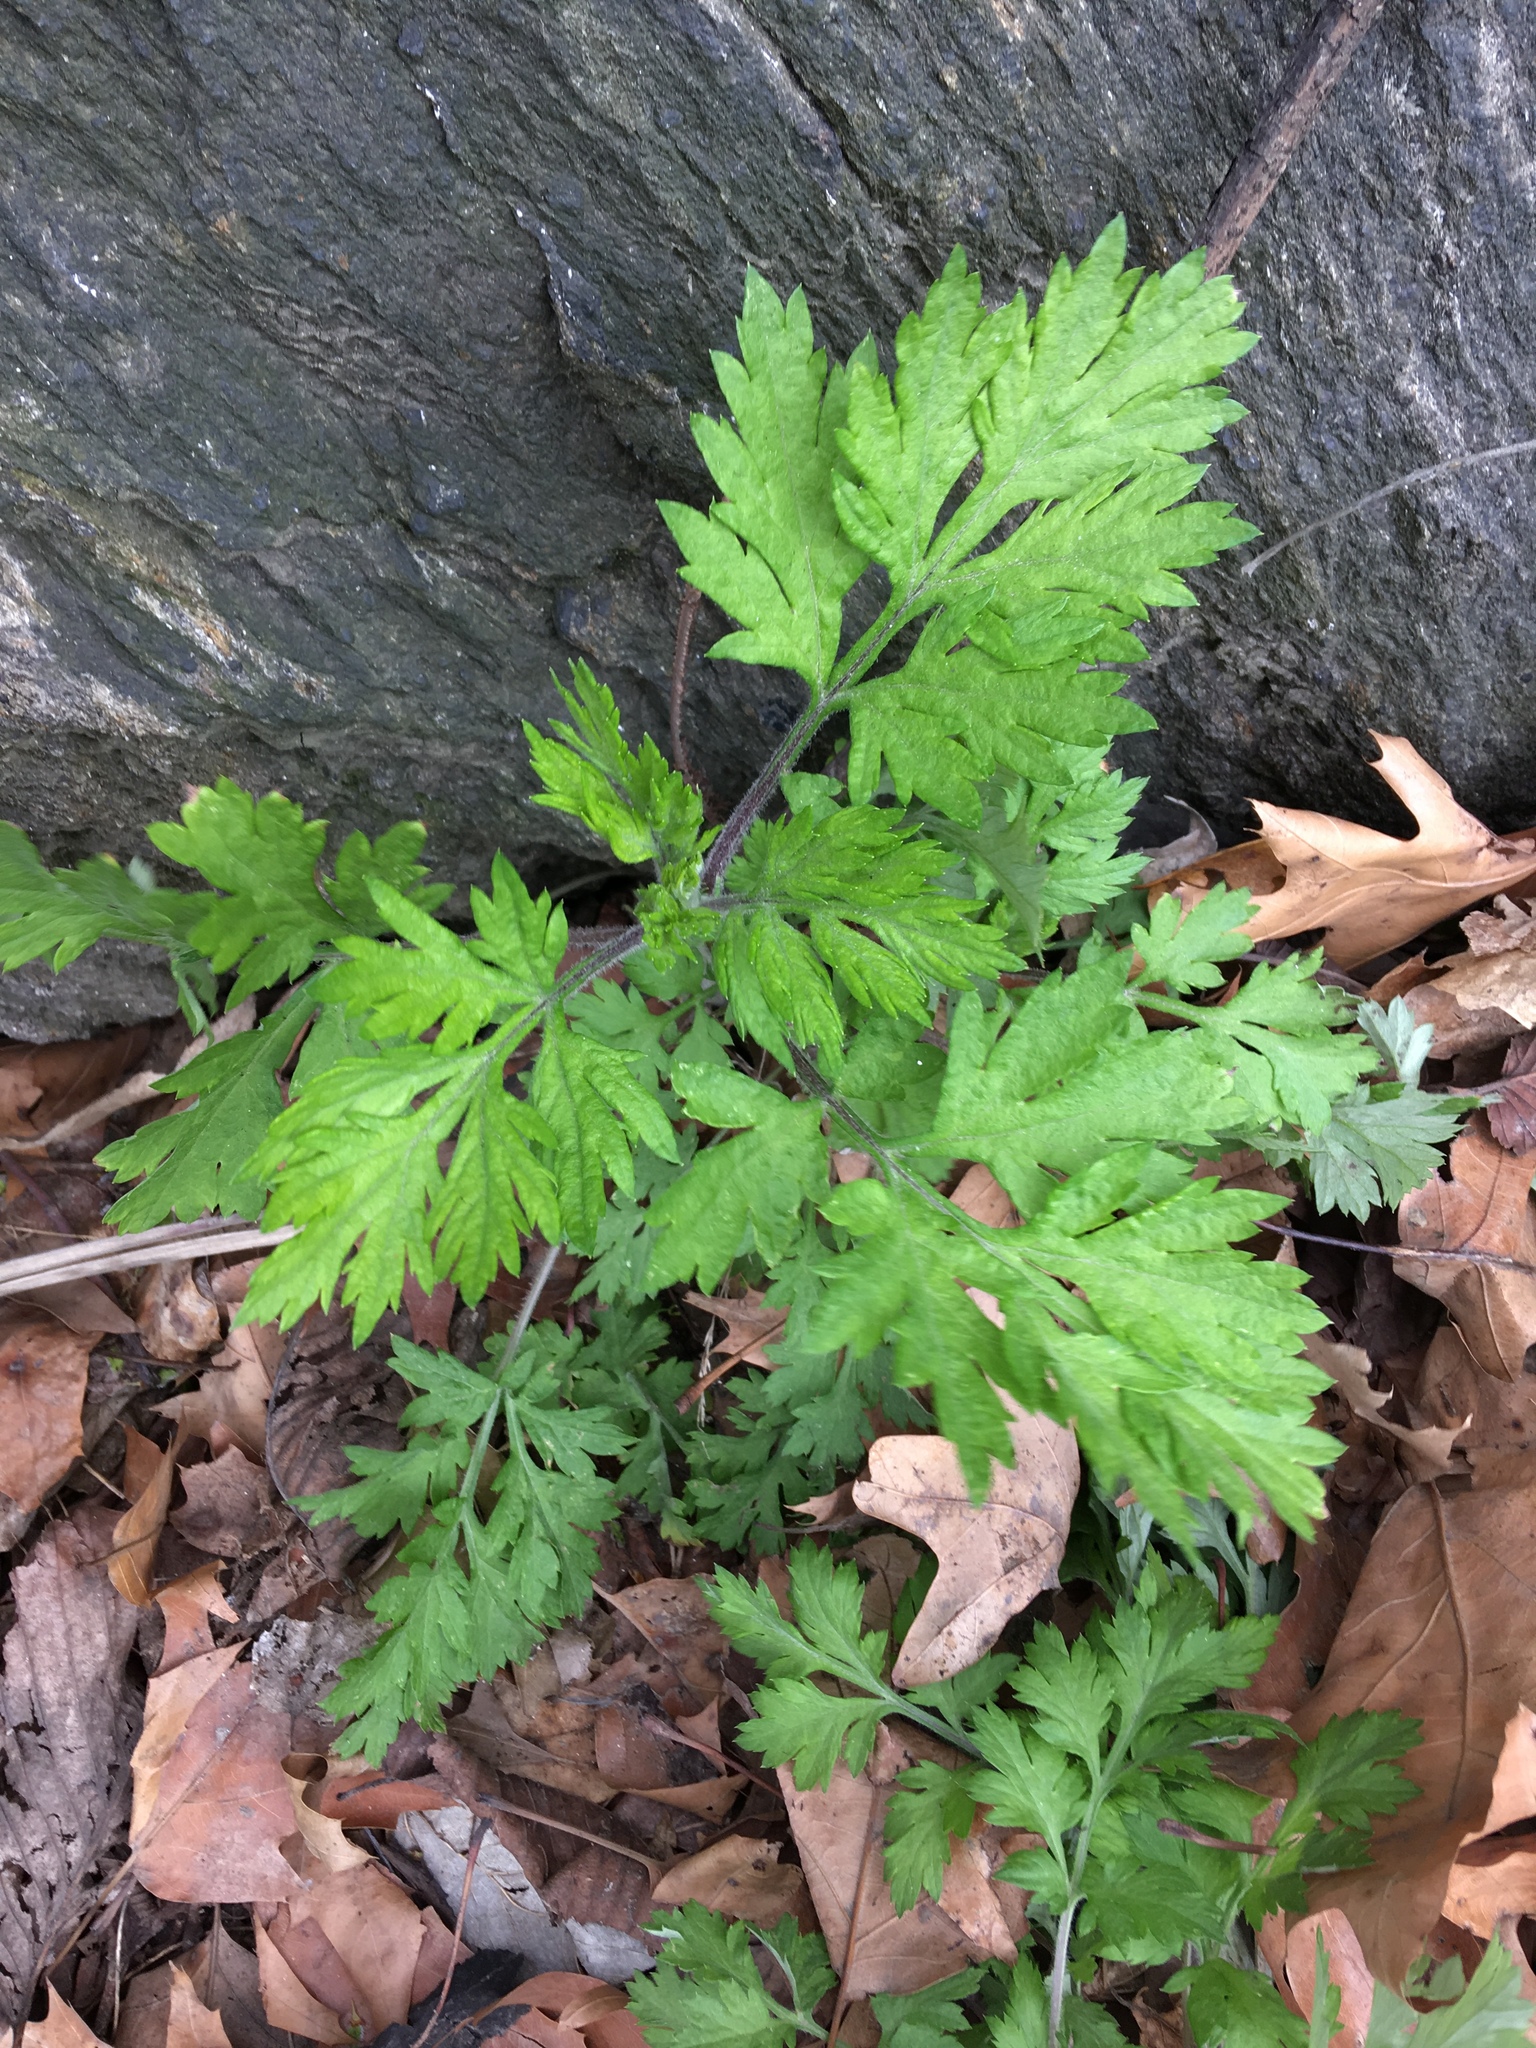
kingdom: Plantae
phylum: Tracheophyta
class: Magnoliopsida
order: Asterales
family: Asteraceae
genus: Artemisia
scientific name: Artemisia vulgaris
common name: Mugwort
